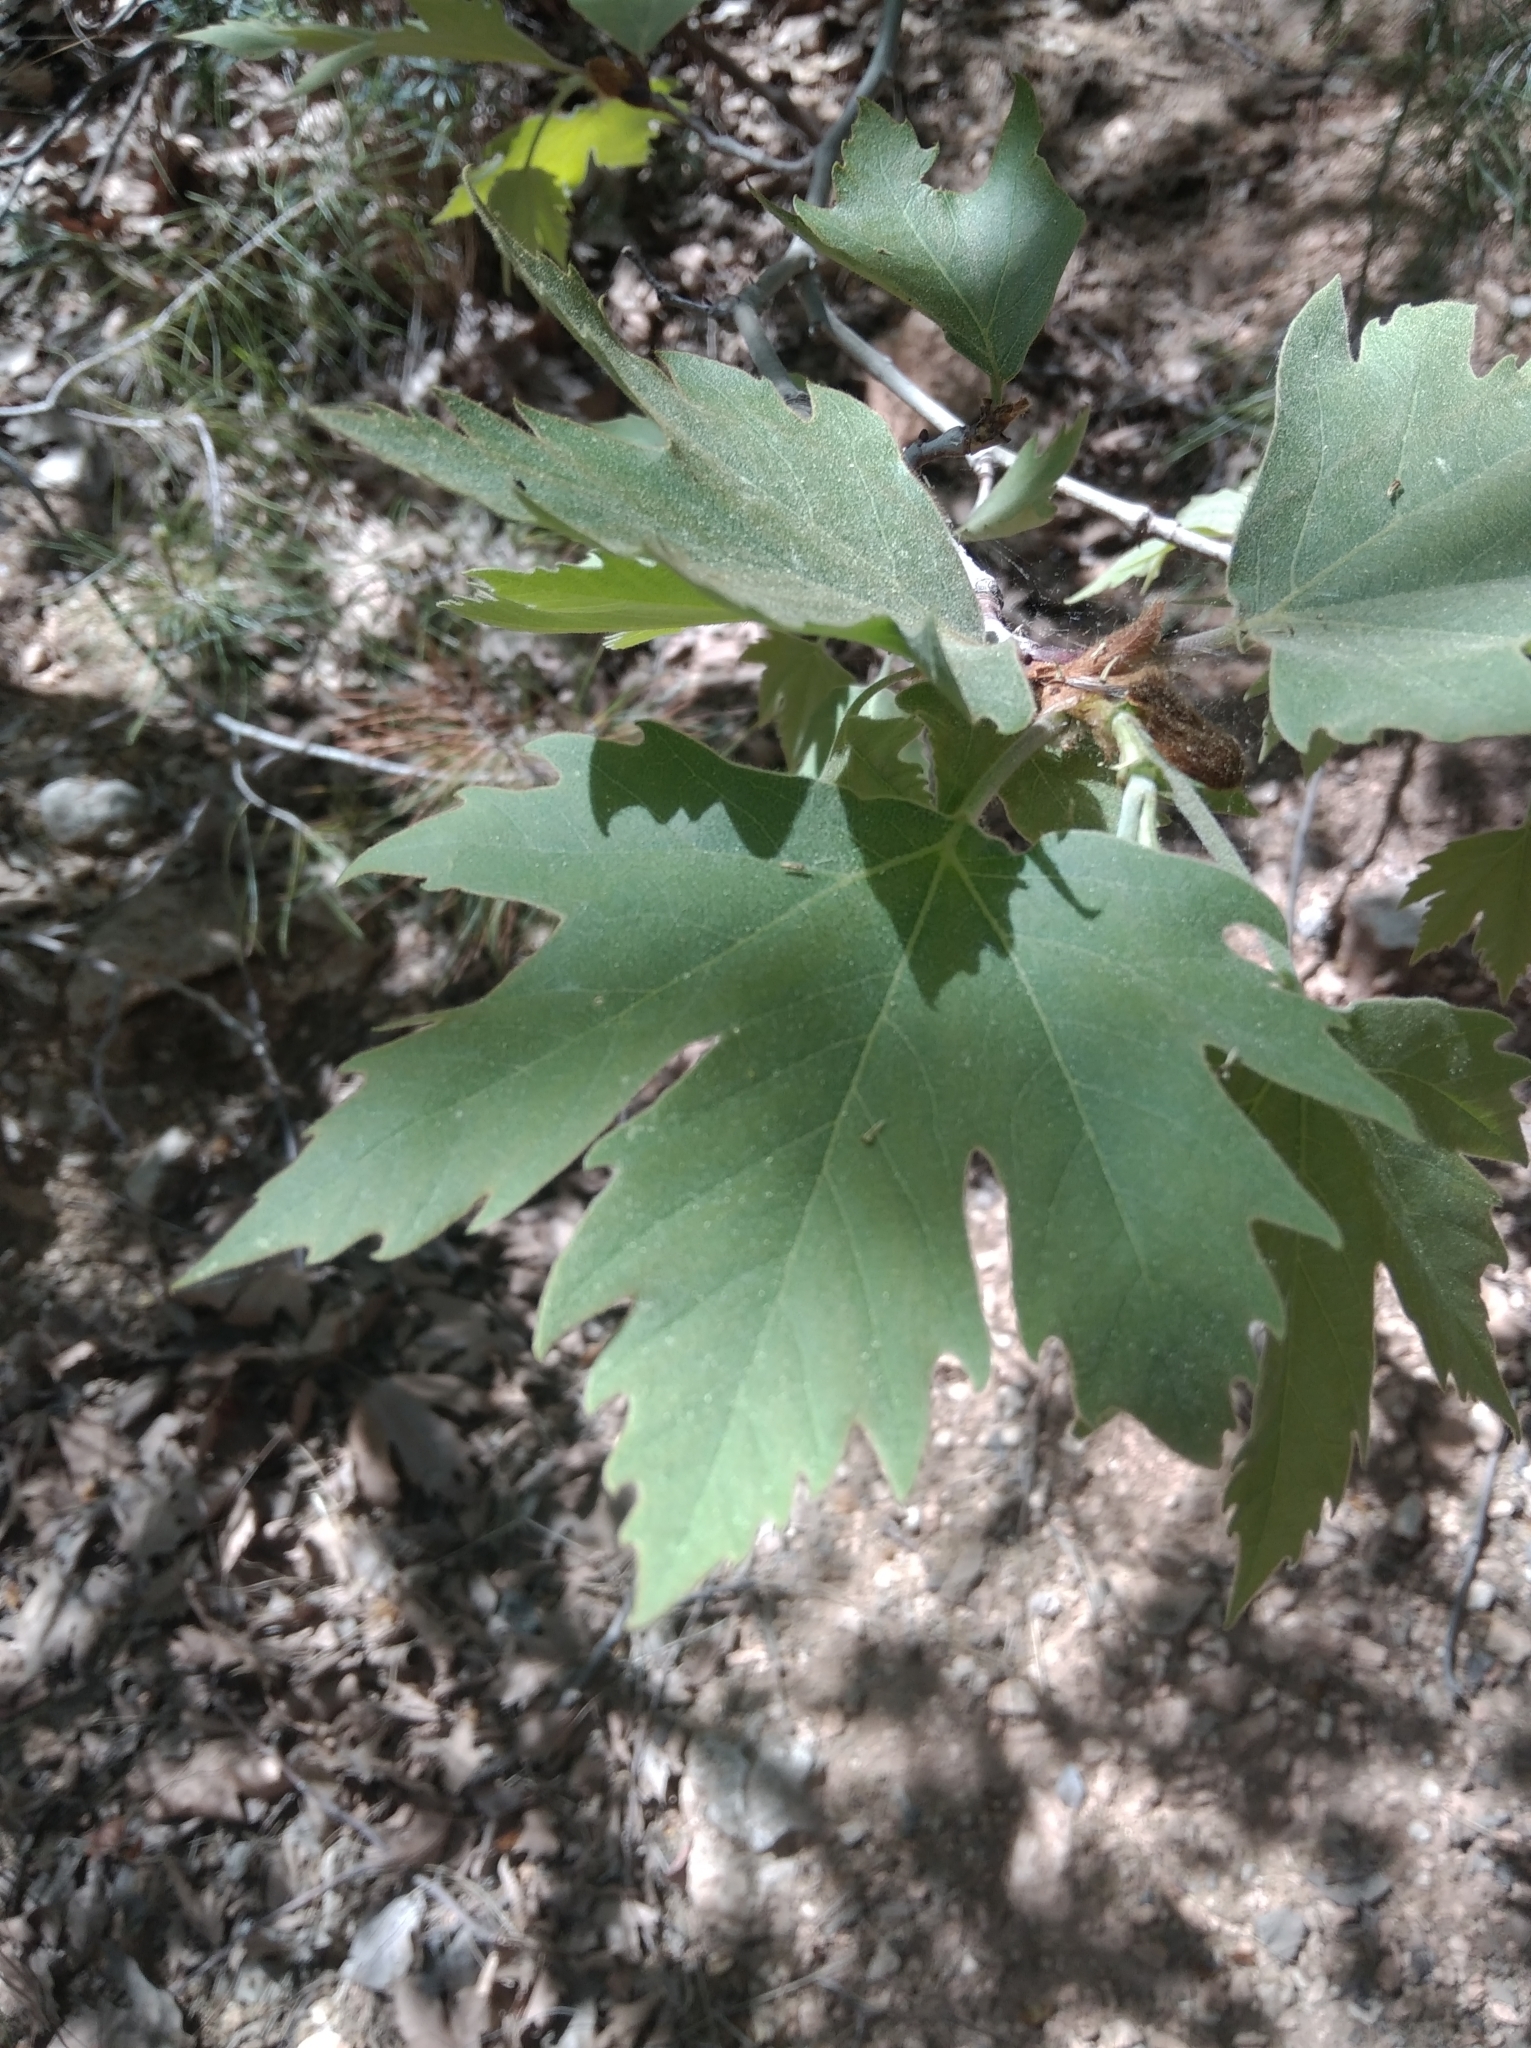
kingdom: Plantae
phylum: Tracheophyta
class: Magnoliopsida
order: Proteales
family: Platanaceae
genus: Platanus
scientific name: Platanus orientalis
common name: Oriental plane
